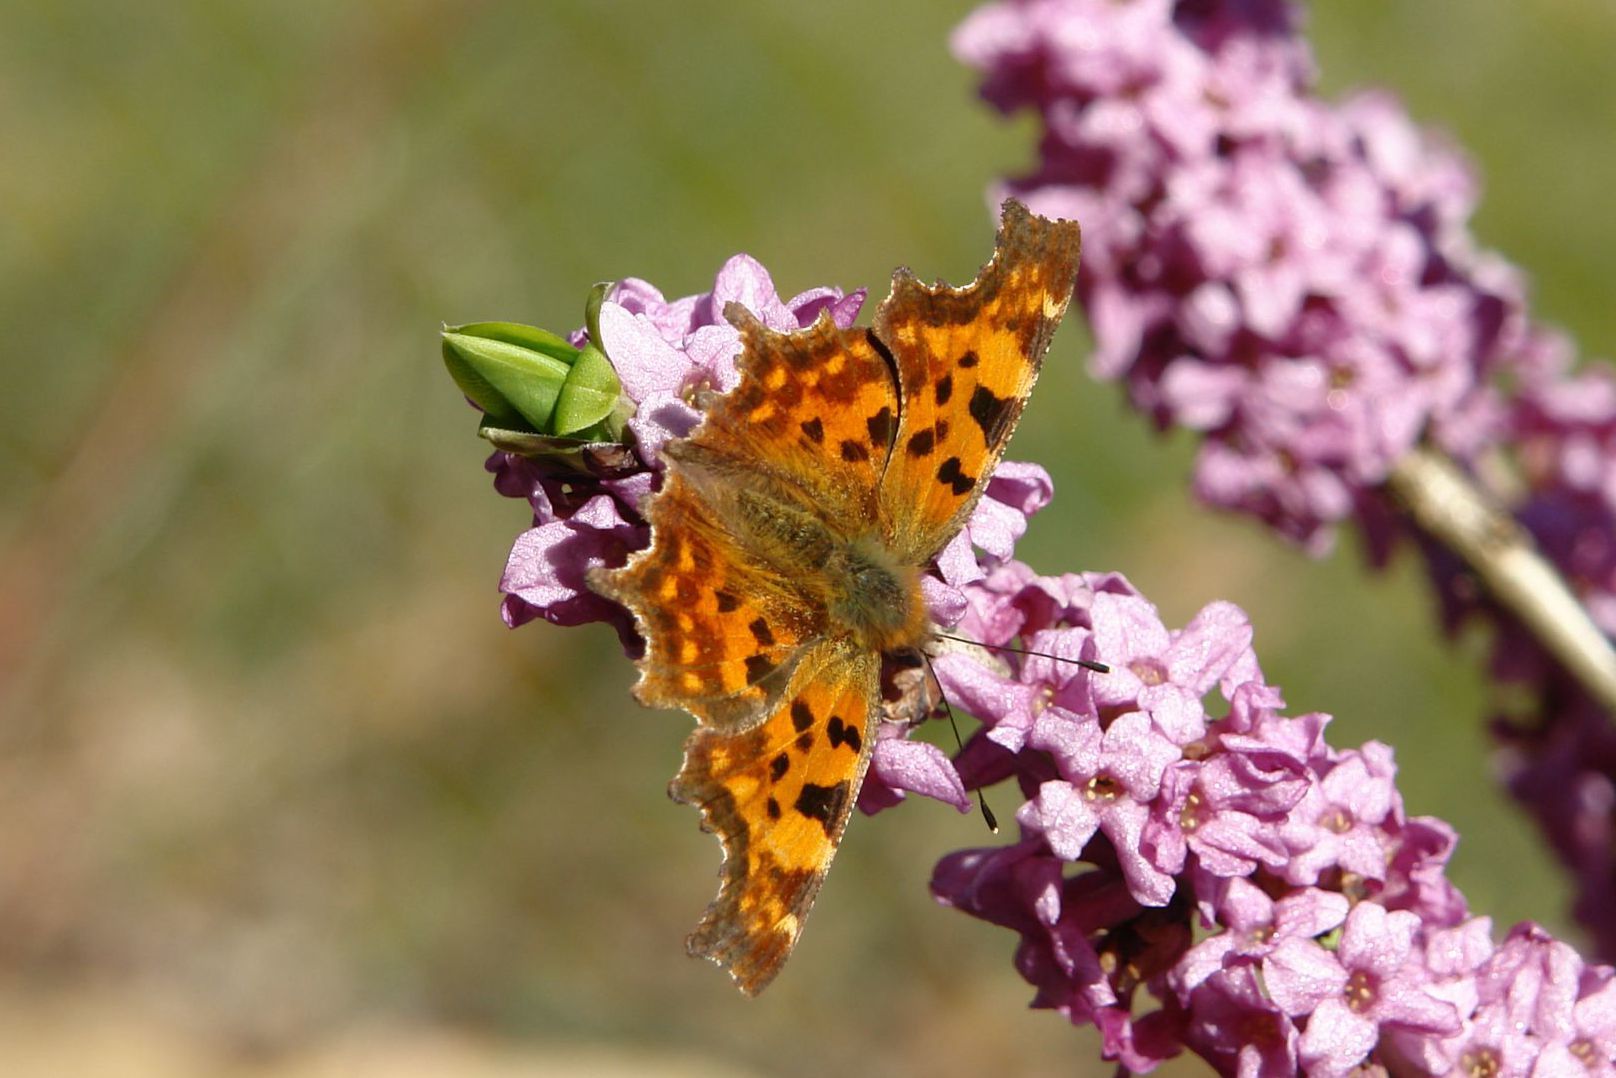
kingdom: Animalia
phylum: Arthropoda
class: Insecta
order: Lepidoptera
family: Nymphalidae
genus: Polygonia
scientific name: Polygonia c-album
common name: Comma
